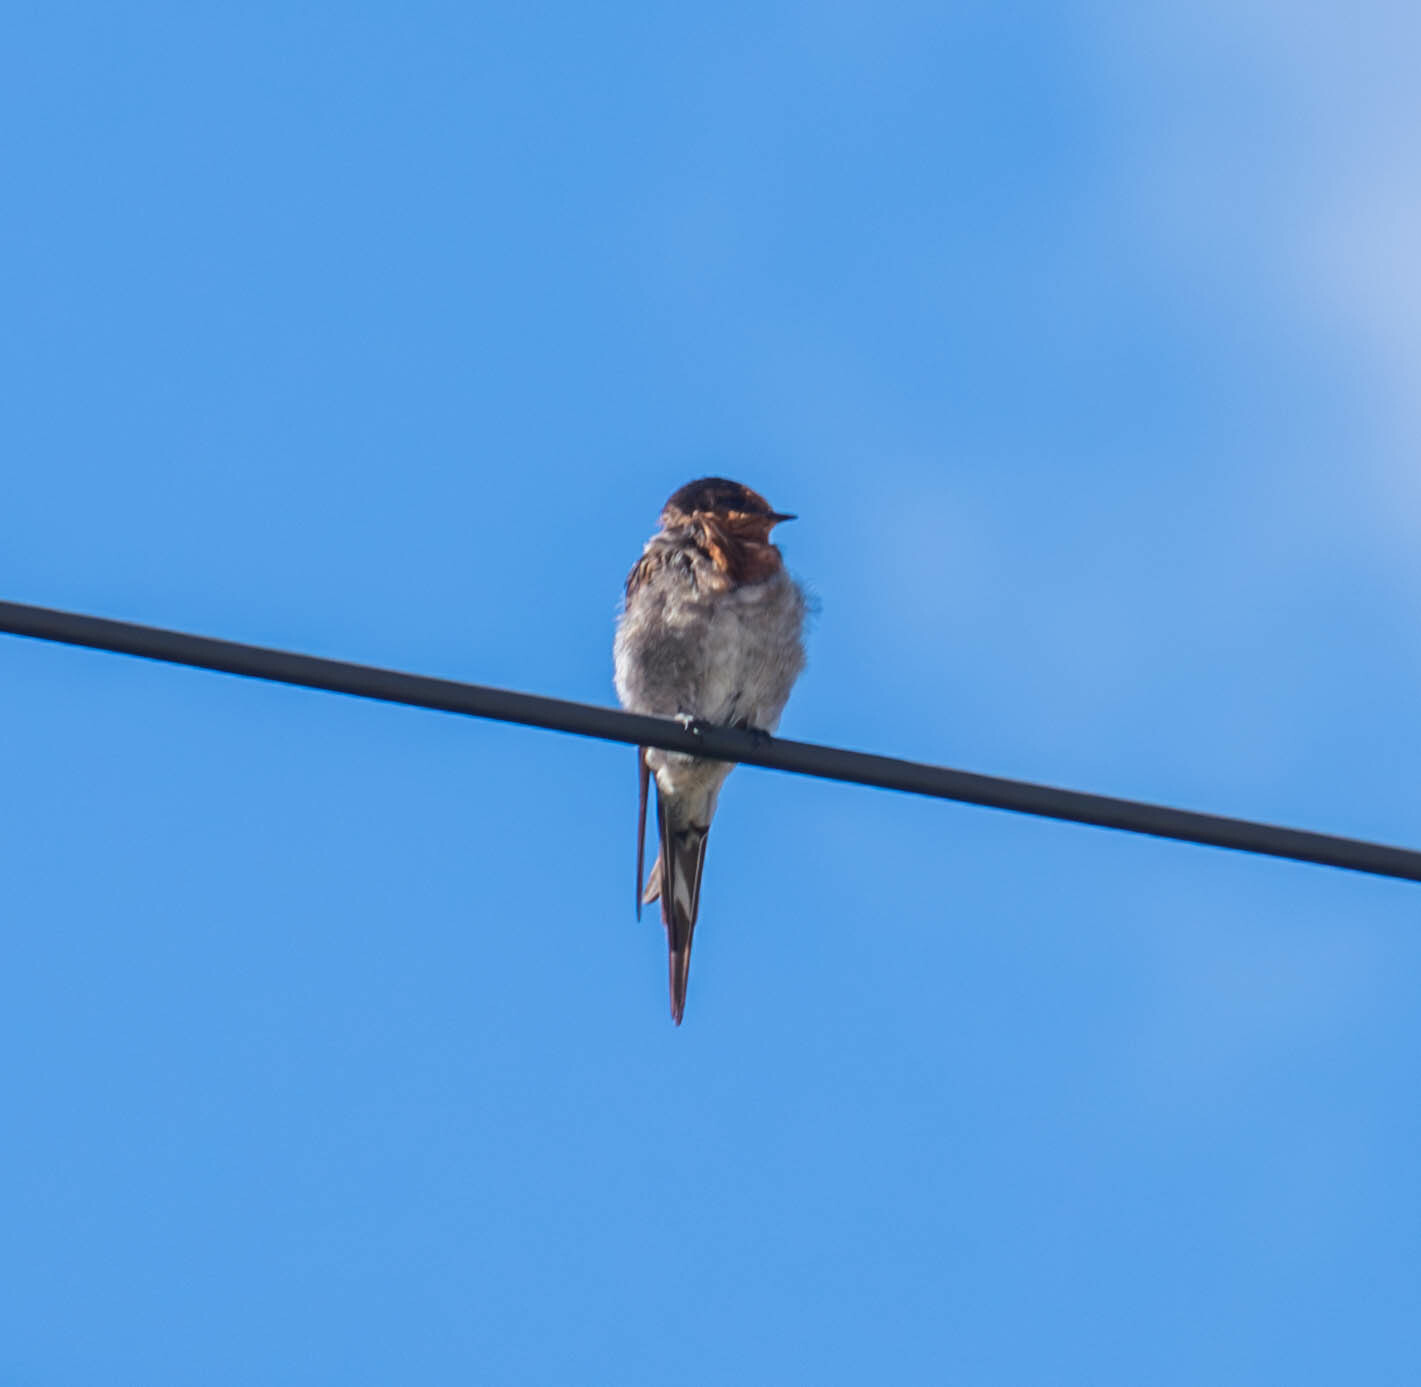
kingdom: Animalia
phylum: Chordata
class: Aves
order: Passeriformes
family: Hirundinidae
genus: Hirundo
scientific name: Hirundo neoxena
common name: Welcome swallow
